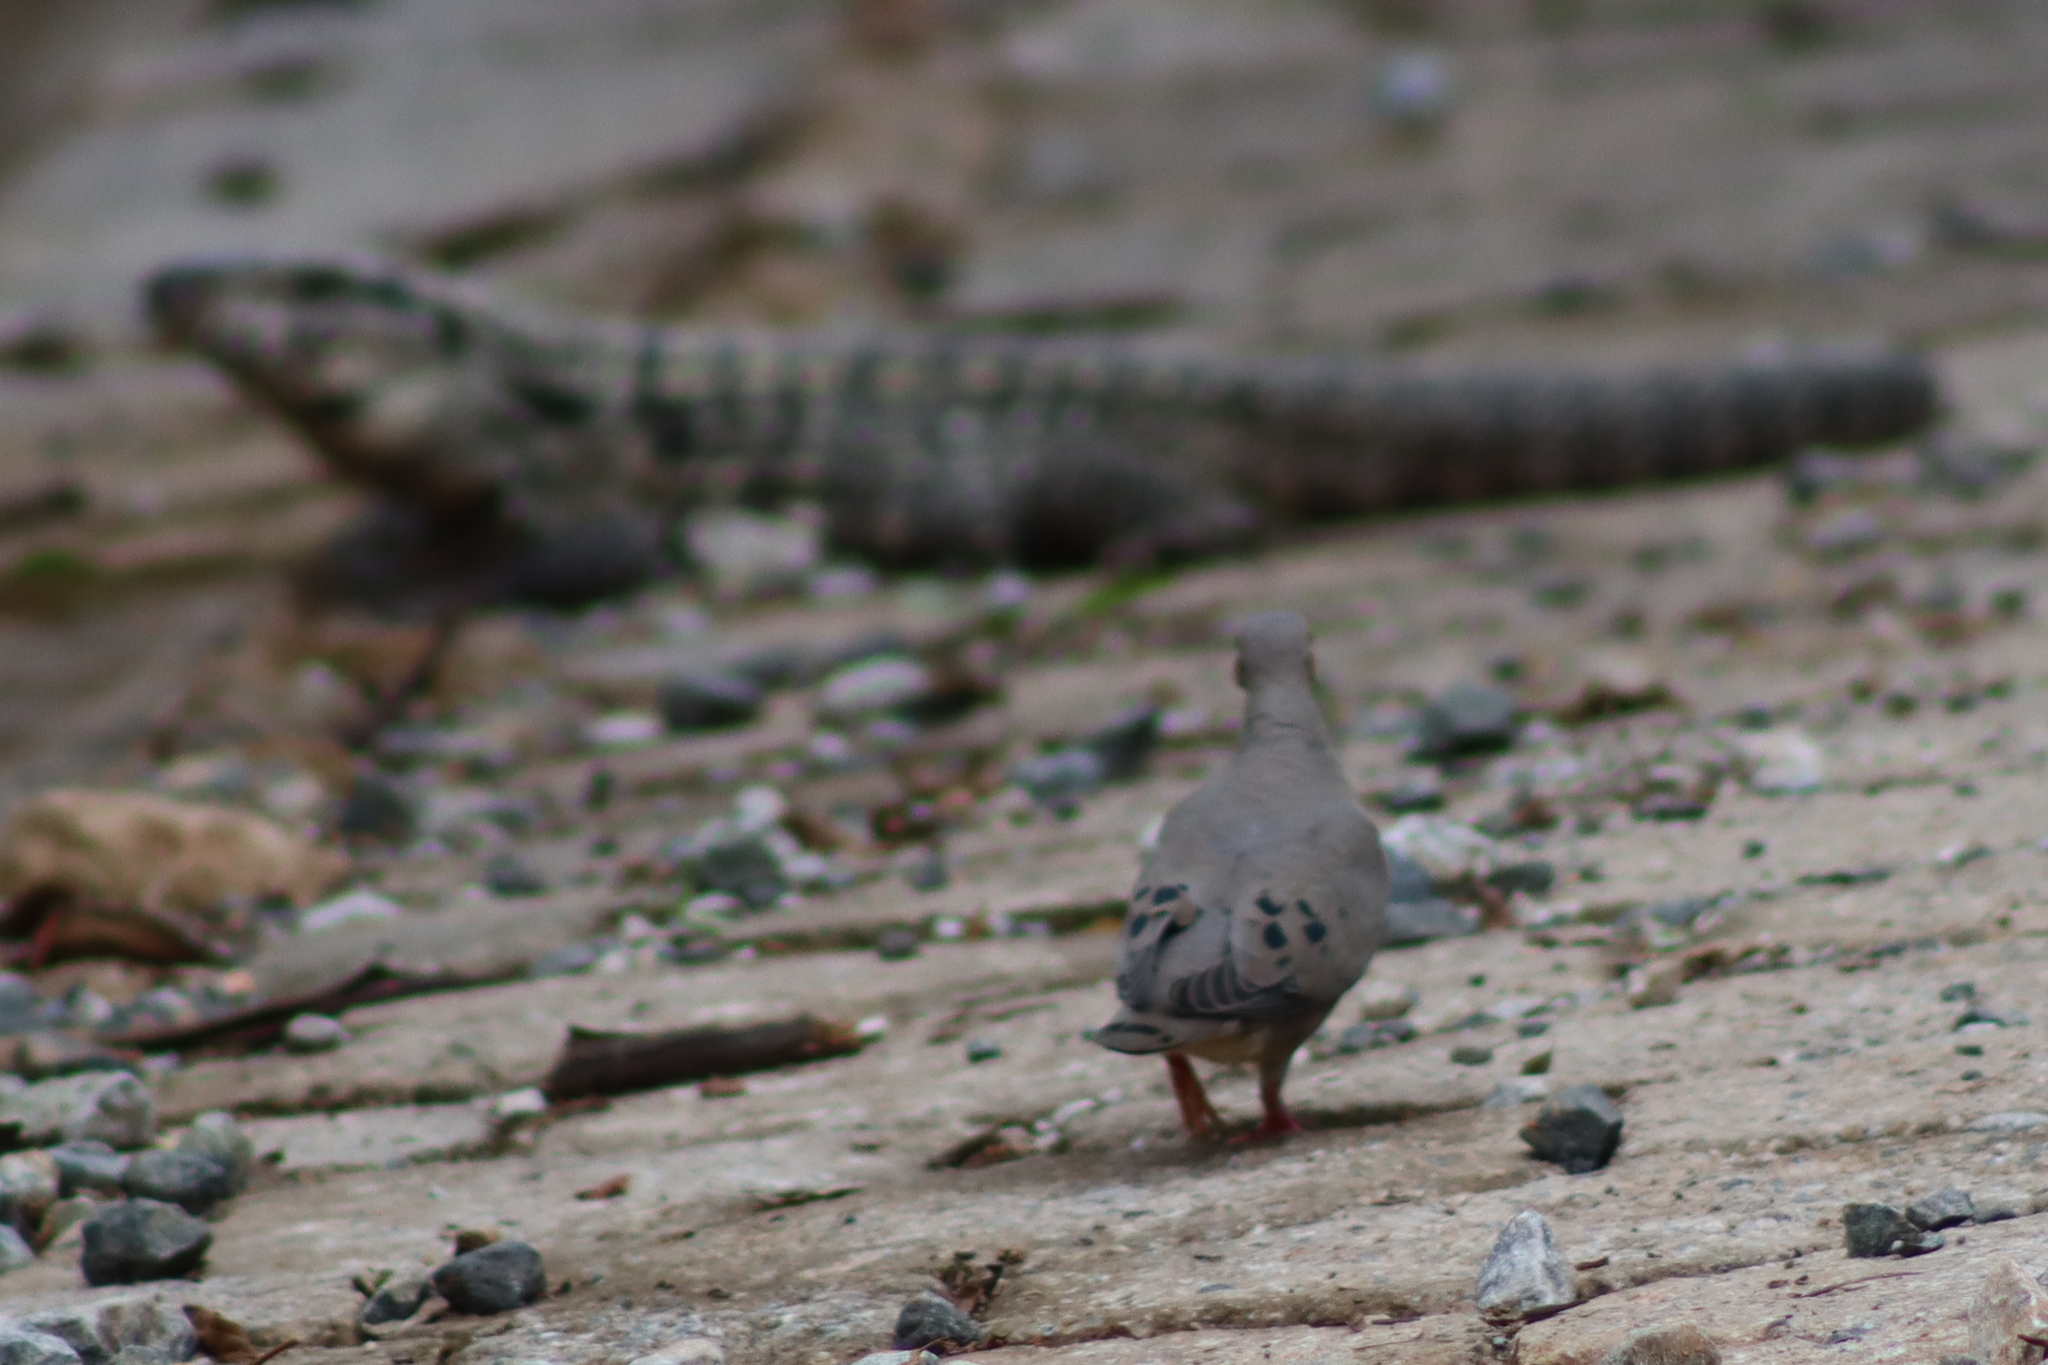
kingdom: Animalia
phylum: Chordata
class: Aves
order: Columbiformes
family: Columbidae
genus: Zenaida
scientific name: Zenaida auriculata
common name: Eared dove
